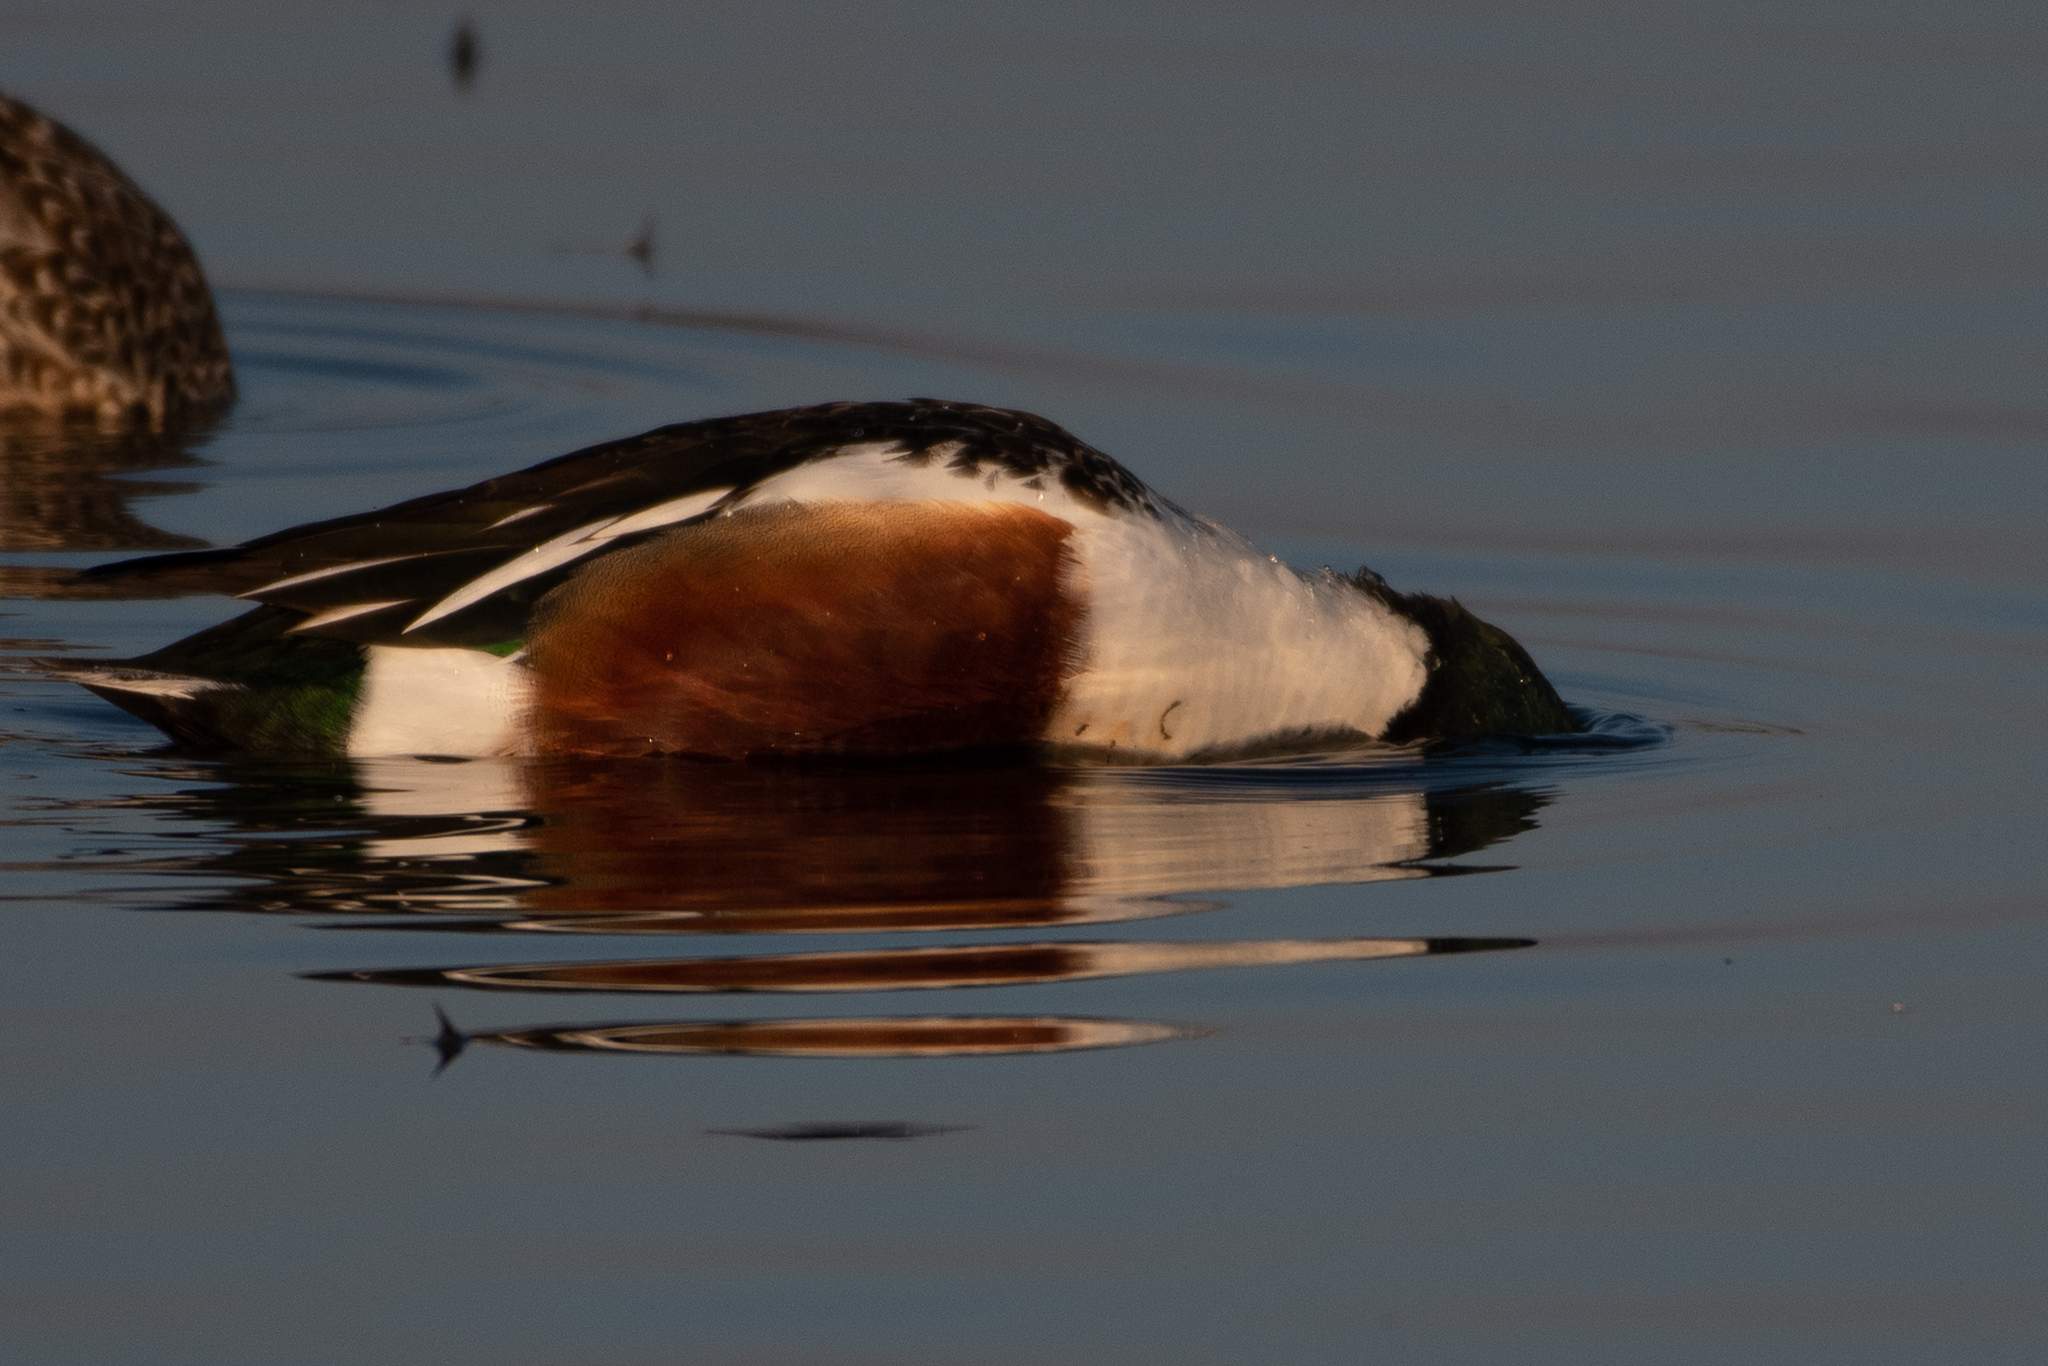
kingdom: Animalia
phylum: Chordata
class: Aves
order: Anseriformes
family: Anatidae
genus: Spatula
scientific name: Spatula clypeata
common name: Northern shoveler
